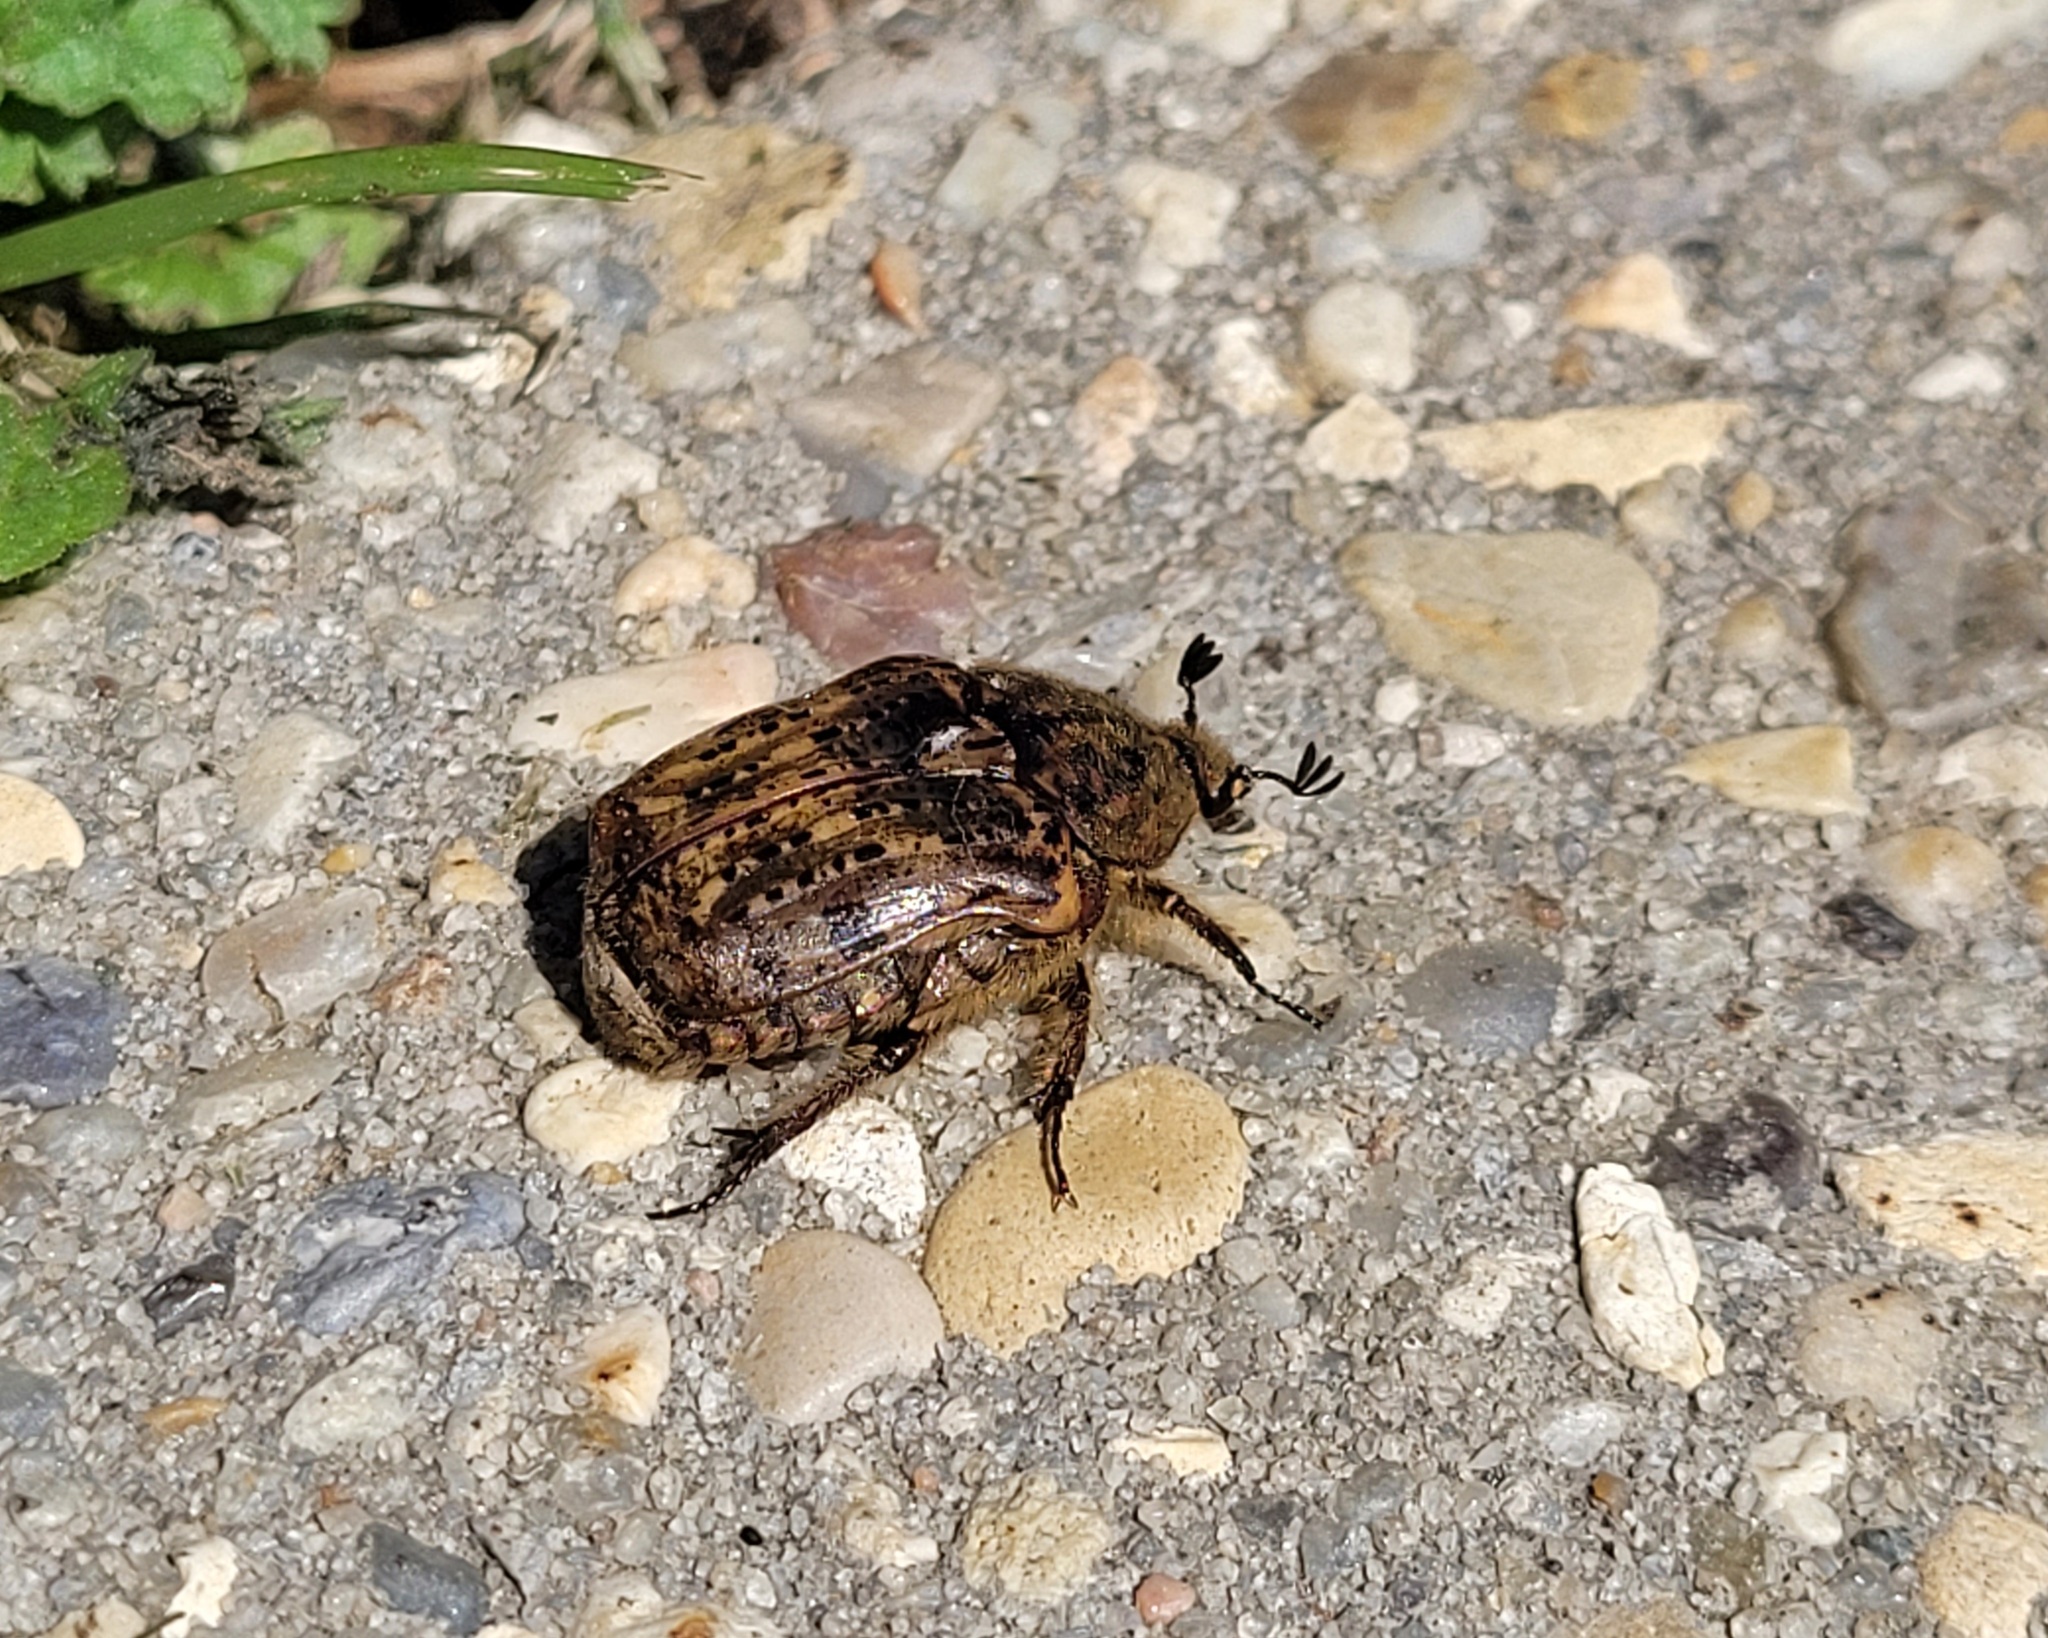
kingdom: Animalia
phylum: Arthropoda
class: Insecta
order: Coleoptera
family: Scarabaeidae
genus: Euphoria
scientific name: Euphoria inda
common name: Bumble flower beetle
